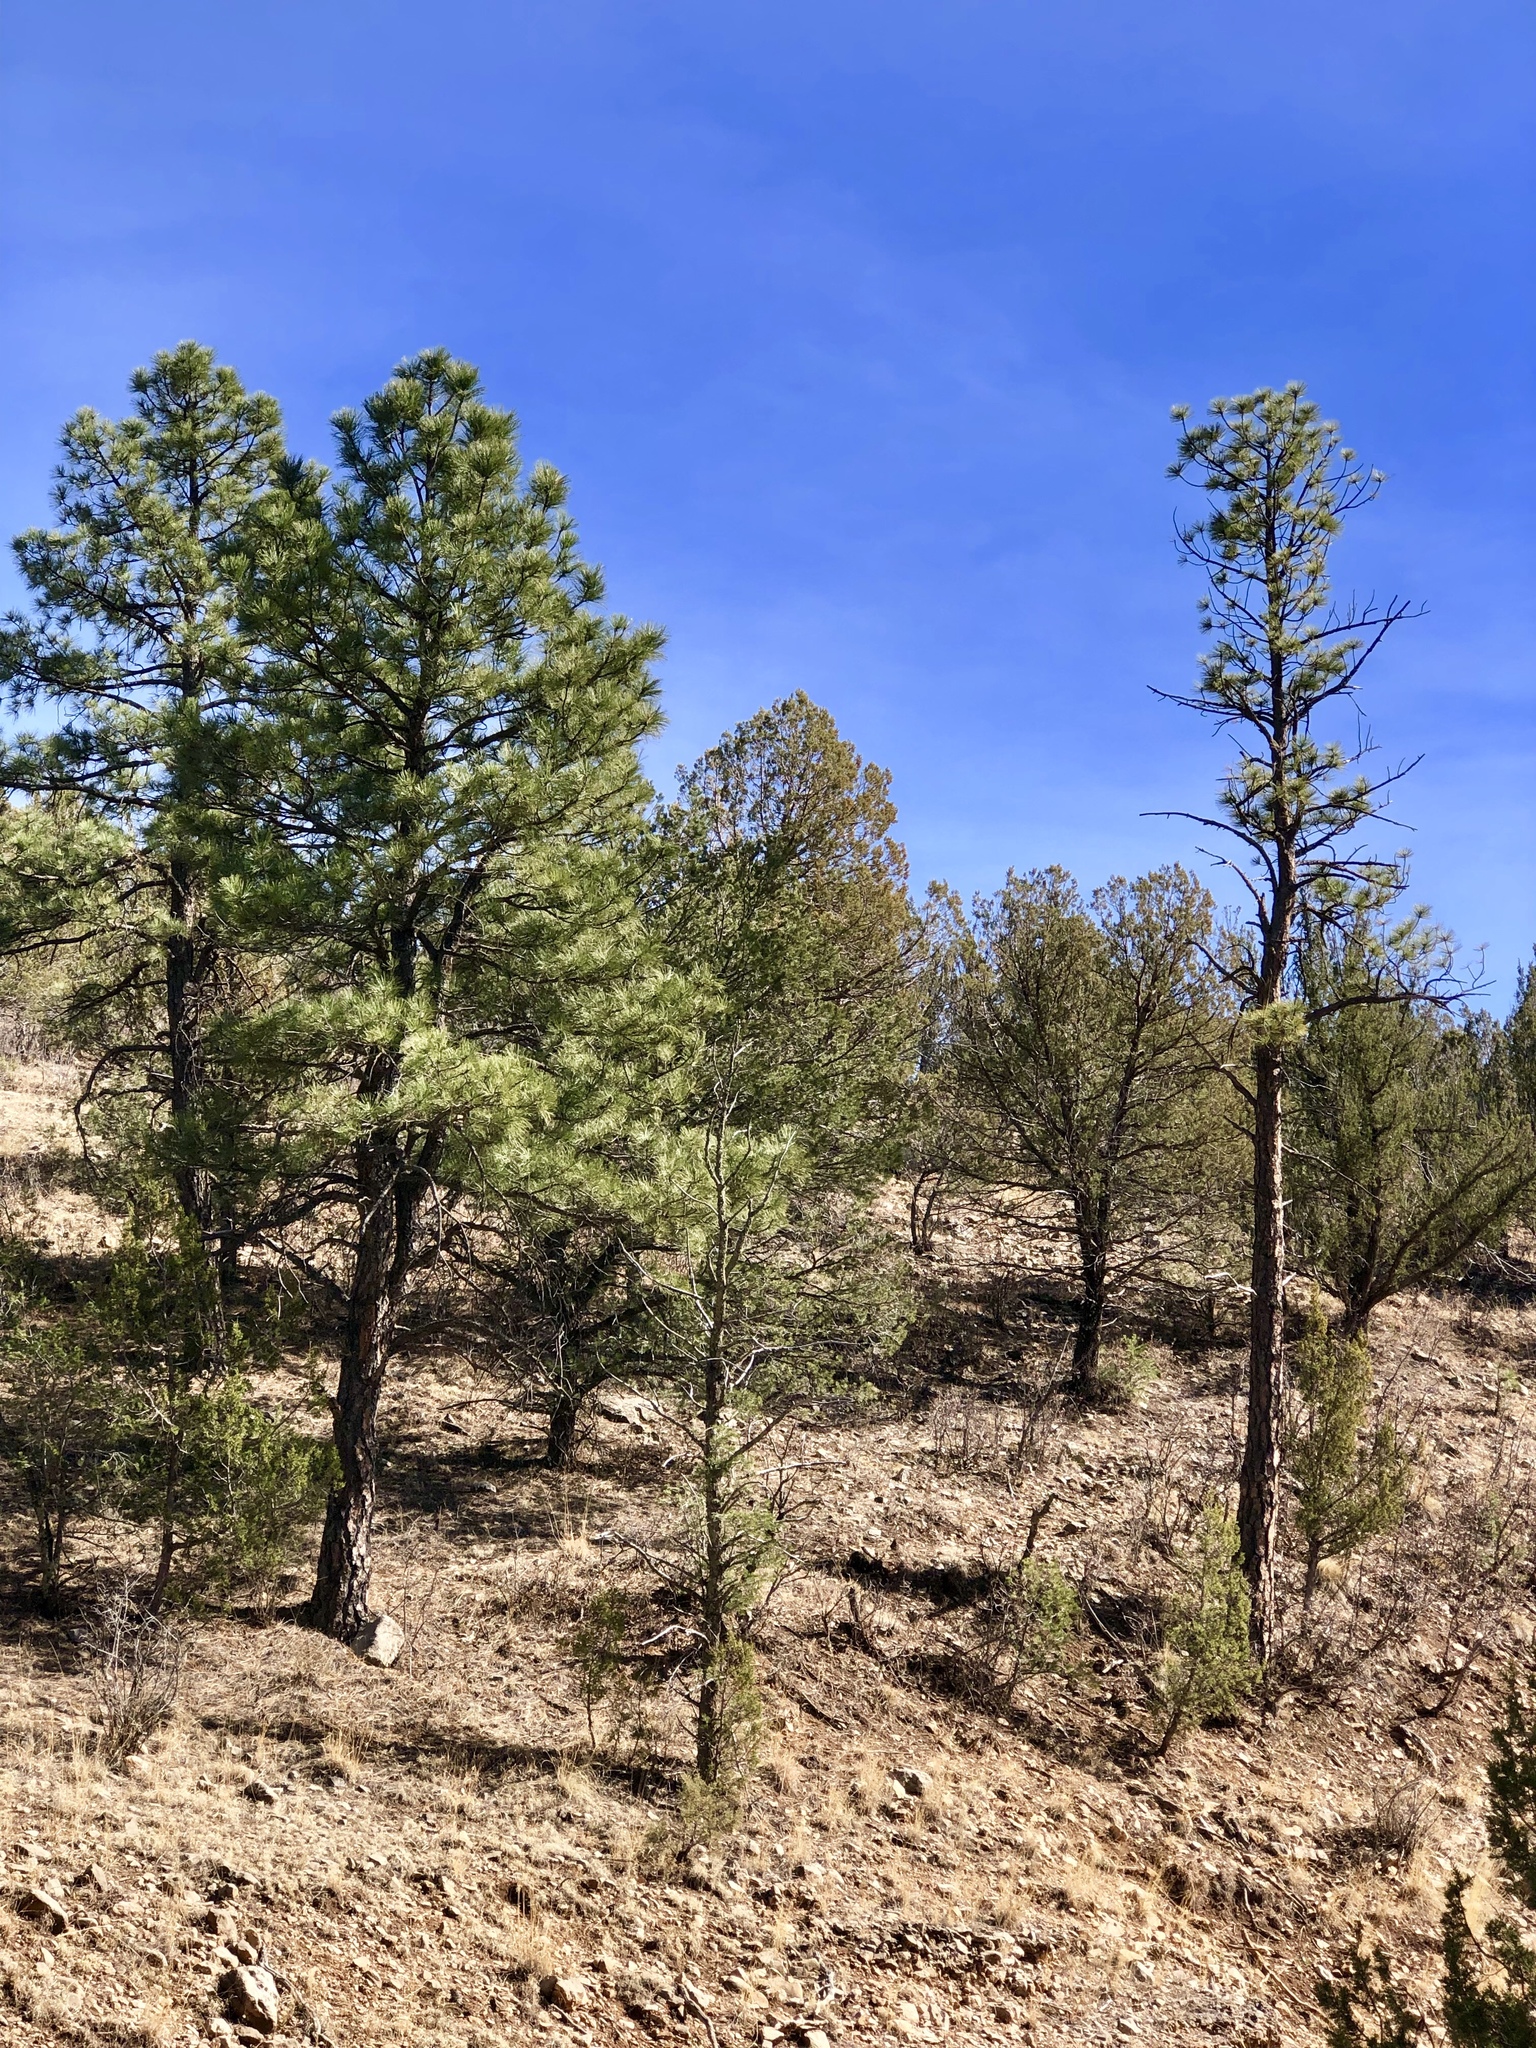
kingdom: Plantae
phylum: Tracheophyta
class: Pinopsida
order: Pinales
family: Pinaceae
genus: Pinus
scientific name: Pinus ponderosa
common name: Western yellow-pine
